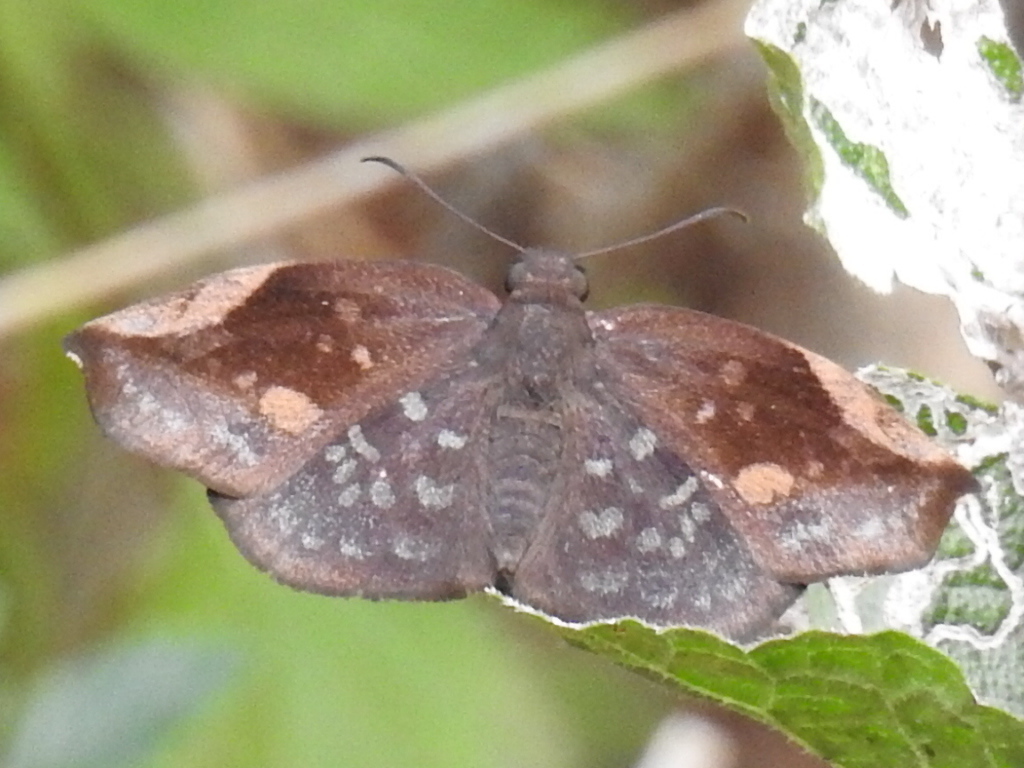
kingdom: Animalia
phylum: Arthropoda
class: Insecta
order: Lepidoptera
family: Hesperiidae
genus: Achlyodes
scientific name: Achlyodes thraso
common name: Sickle-winged skipper
